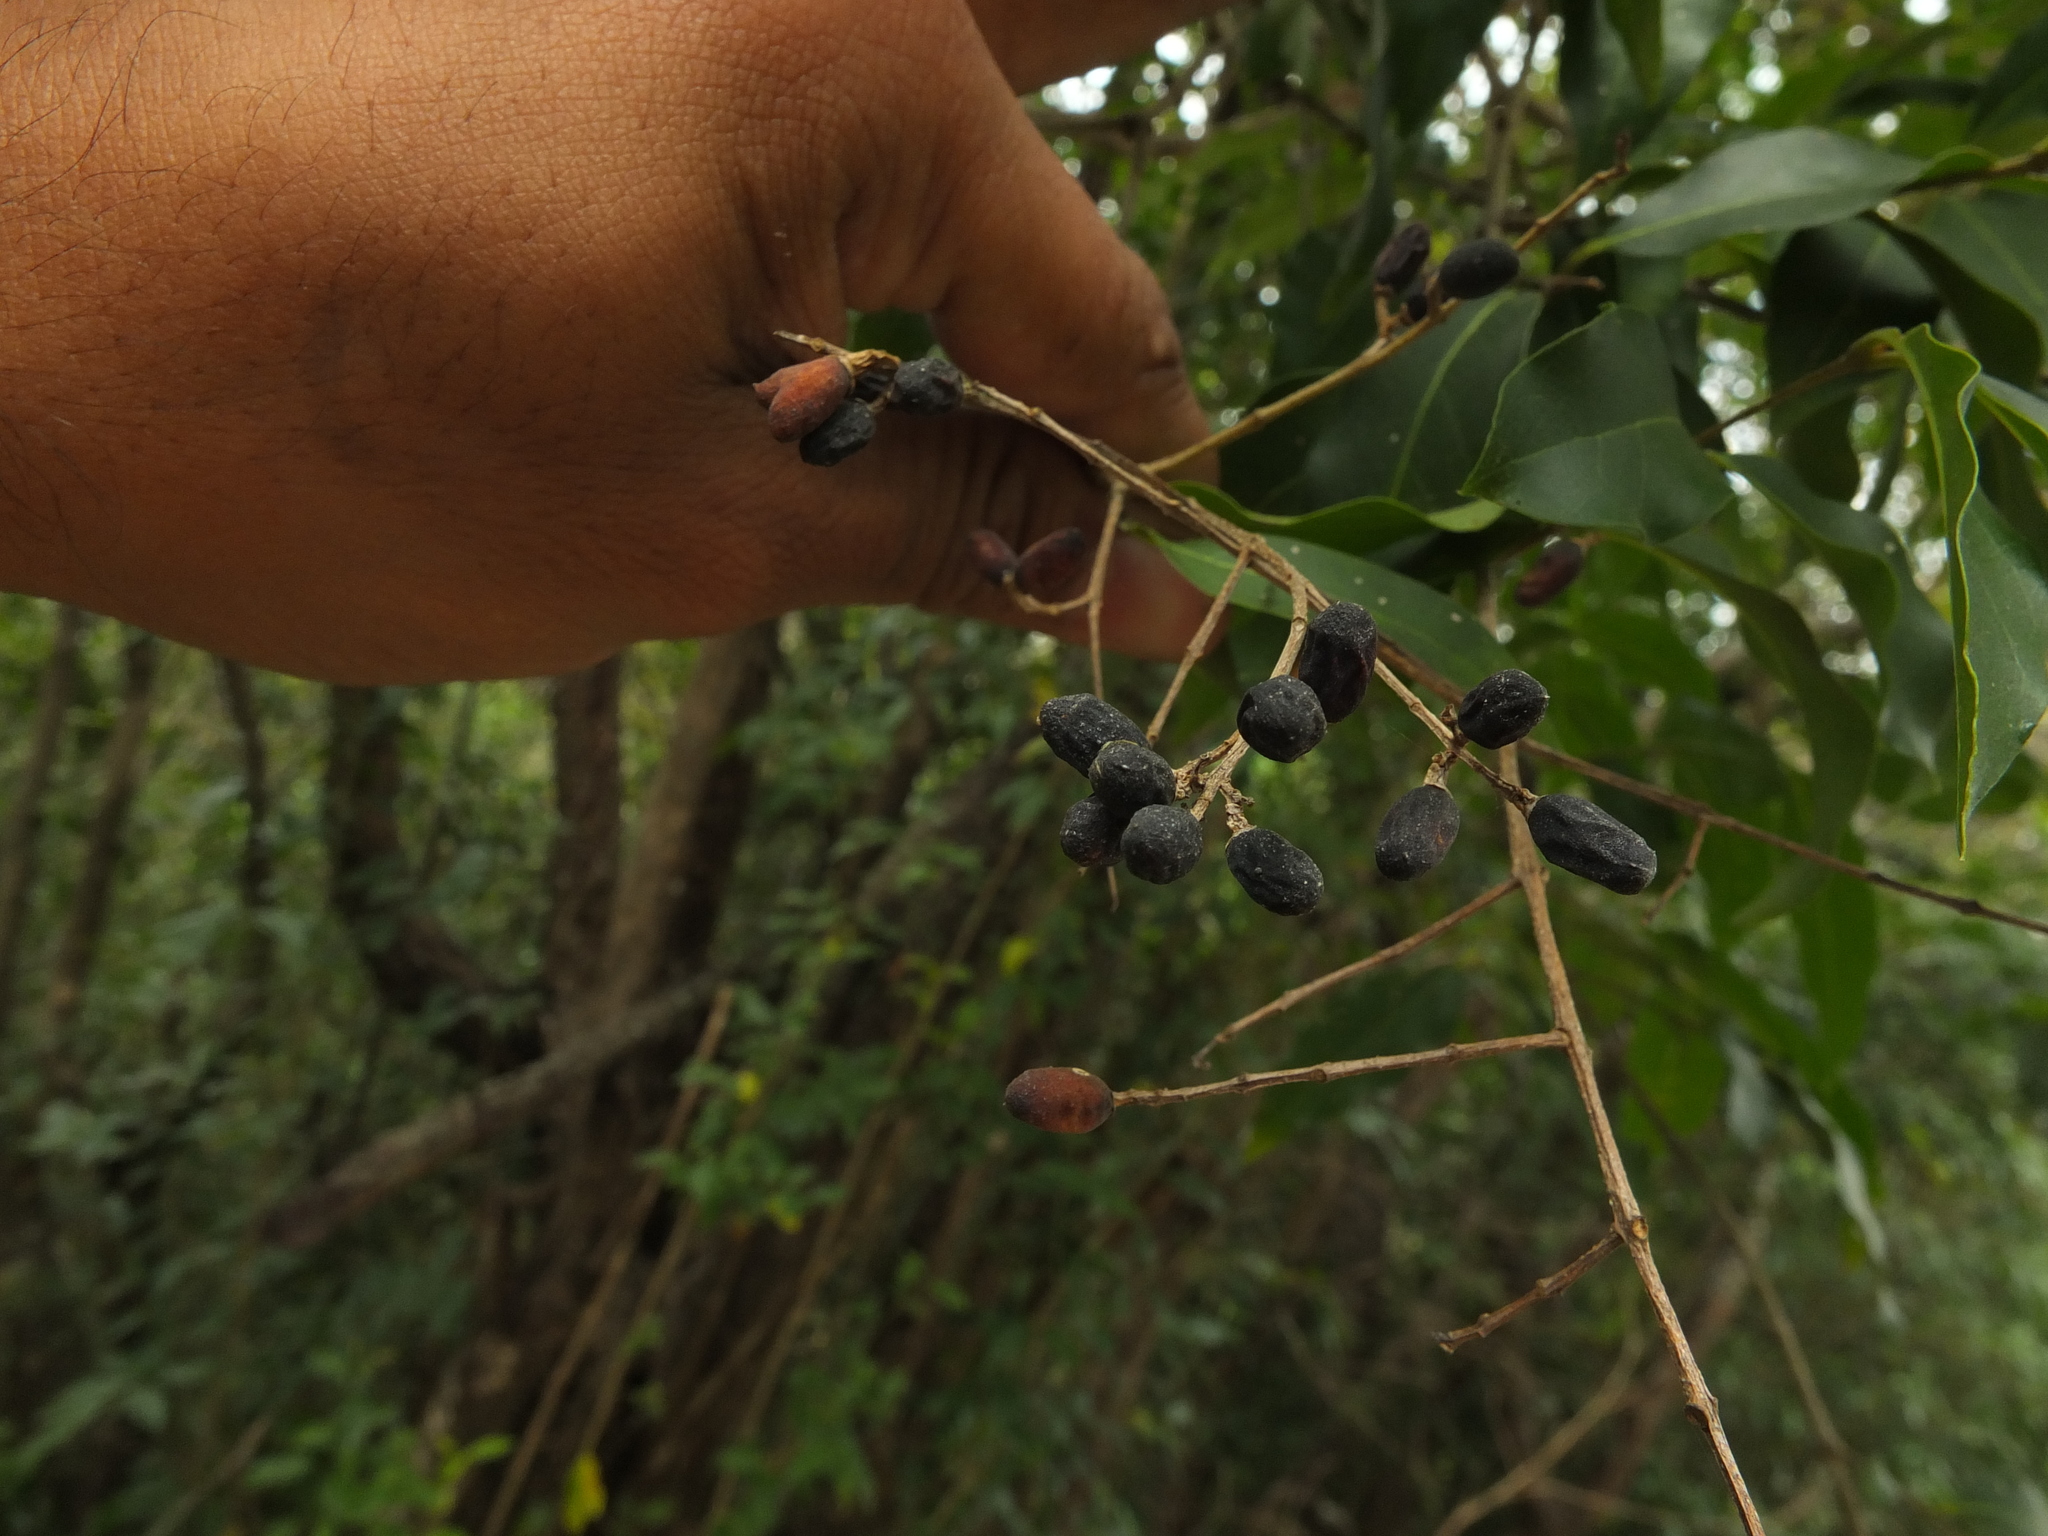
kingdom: Plantae
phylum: Tracheophyta
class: Magnoliopsida
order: Lamiales
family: Oleaceae
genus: Ligustrum
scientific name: Ligustrum robustum
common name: Tree privet
